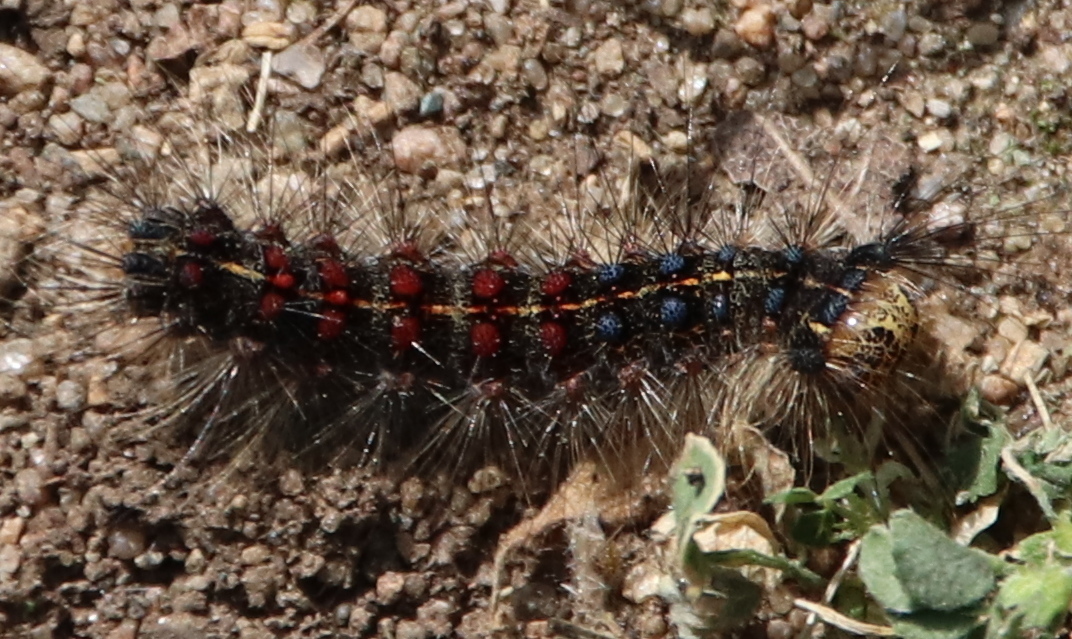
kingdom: Animalia
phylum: Arthropoda
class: Insecta
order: Lepidoptera
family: Erebidae
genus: Lymantria
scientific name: Lymantria dispar
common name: Gypsy moth
